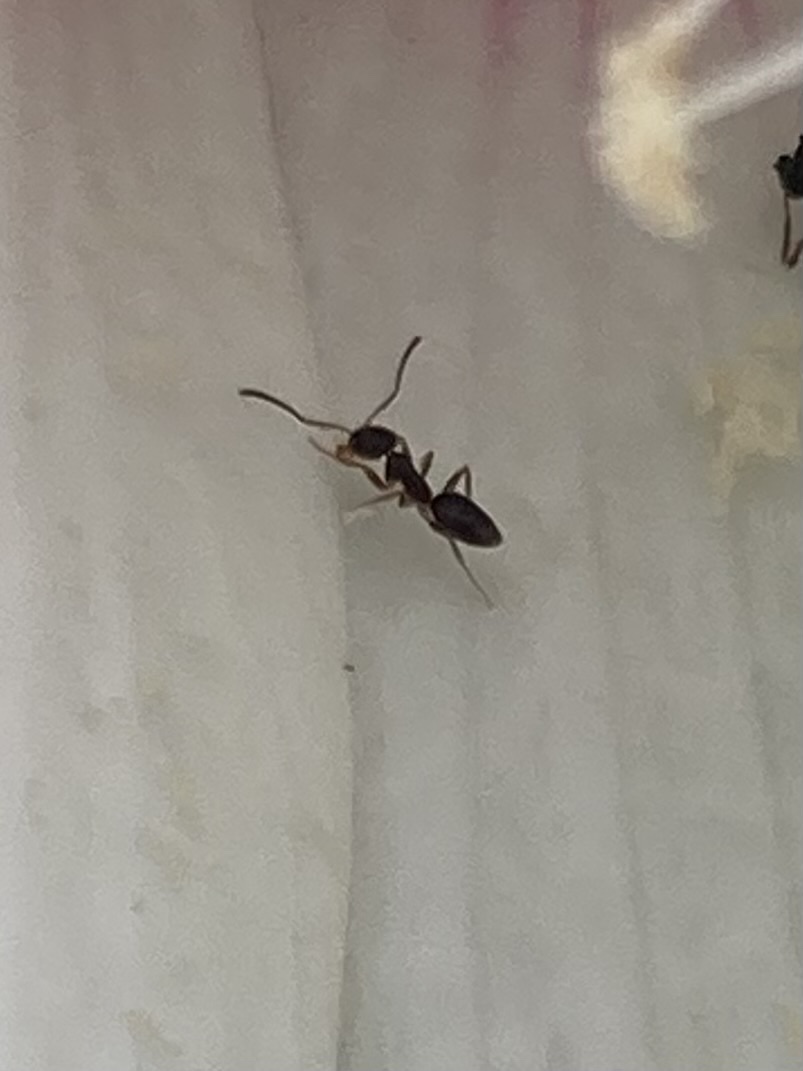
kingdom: Animalia
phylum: Arthropoda
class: Insecta
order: Hymenoptera
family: Formicidae
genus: Tapinoma
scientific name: Tapinoma sessile
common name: Odorous house ant
